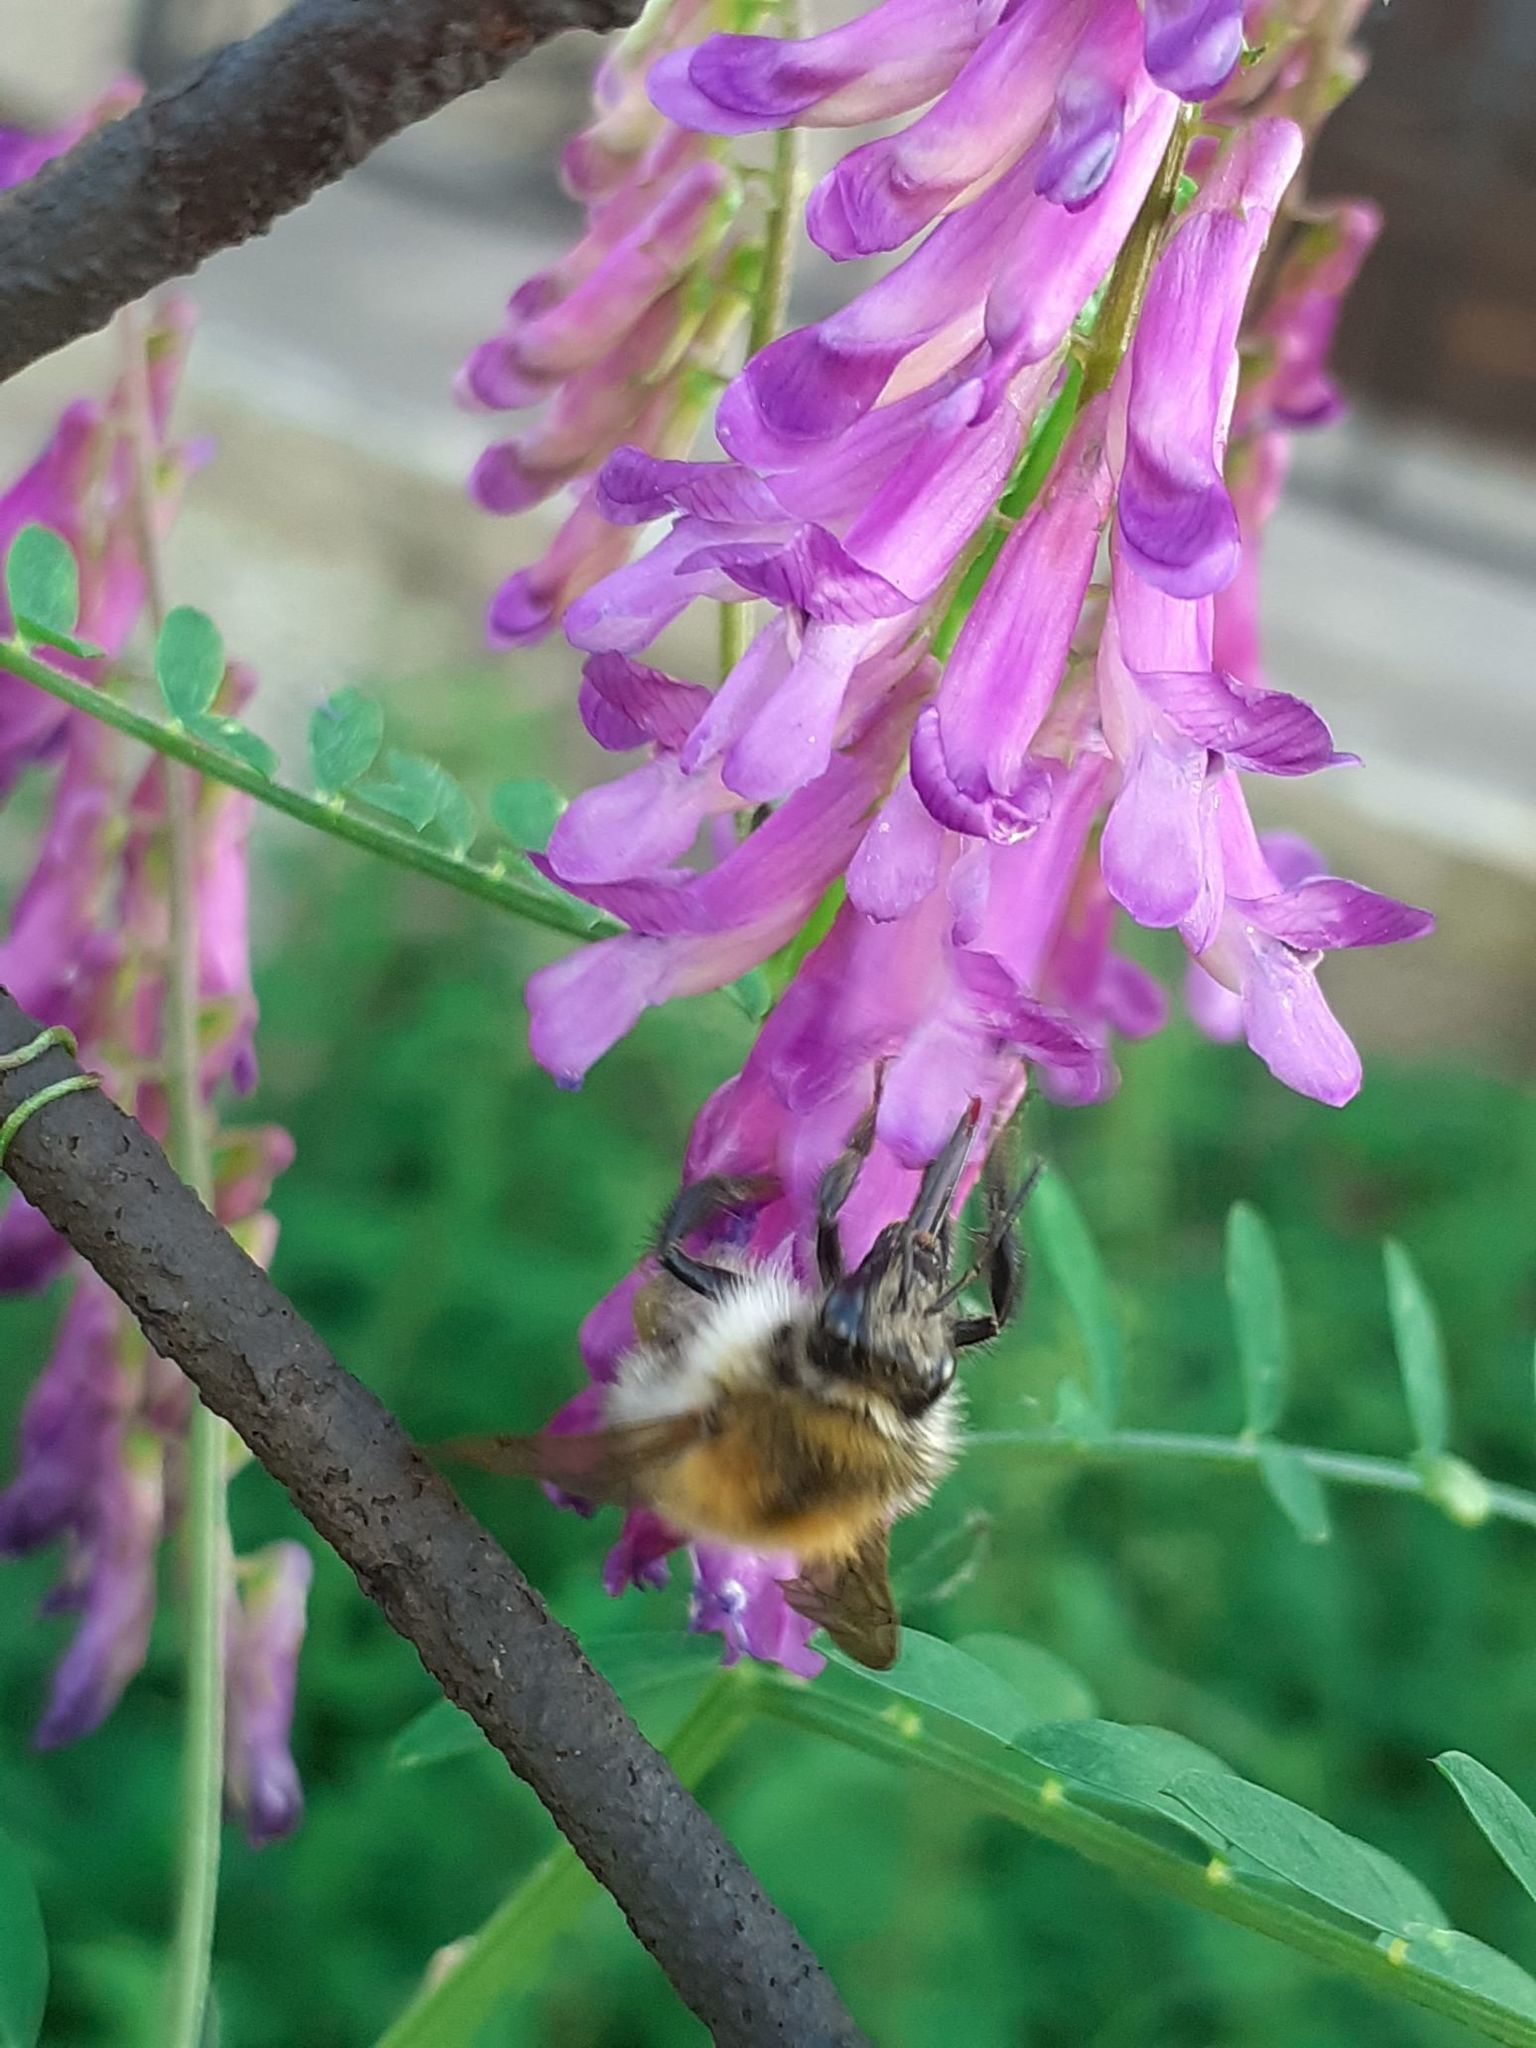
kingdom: Animalia
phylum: Arthropoda
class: Insecta
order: Hymenoptera
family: Apidae
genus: Bombus
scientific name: Bombus pascuorum
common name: Common carder bee
